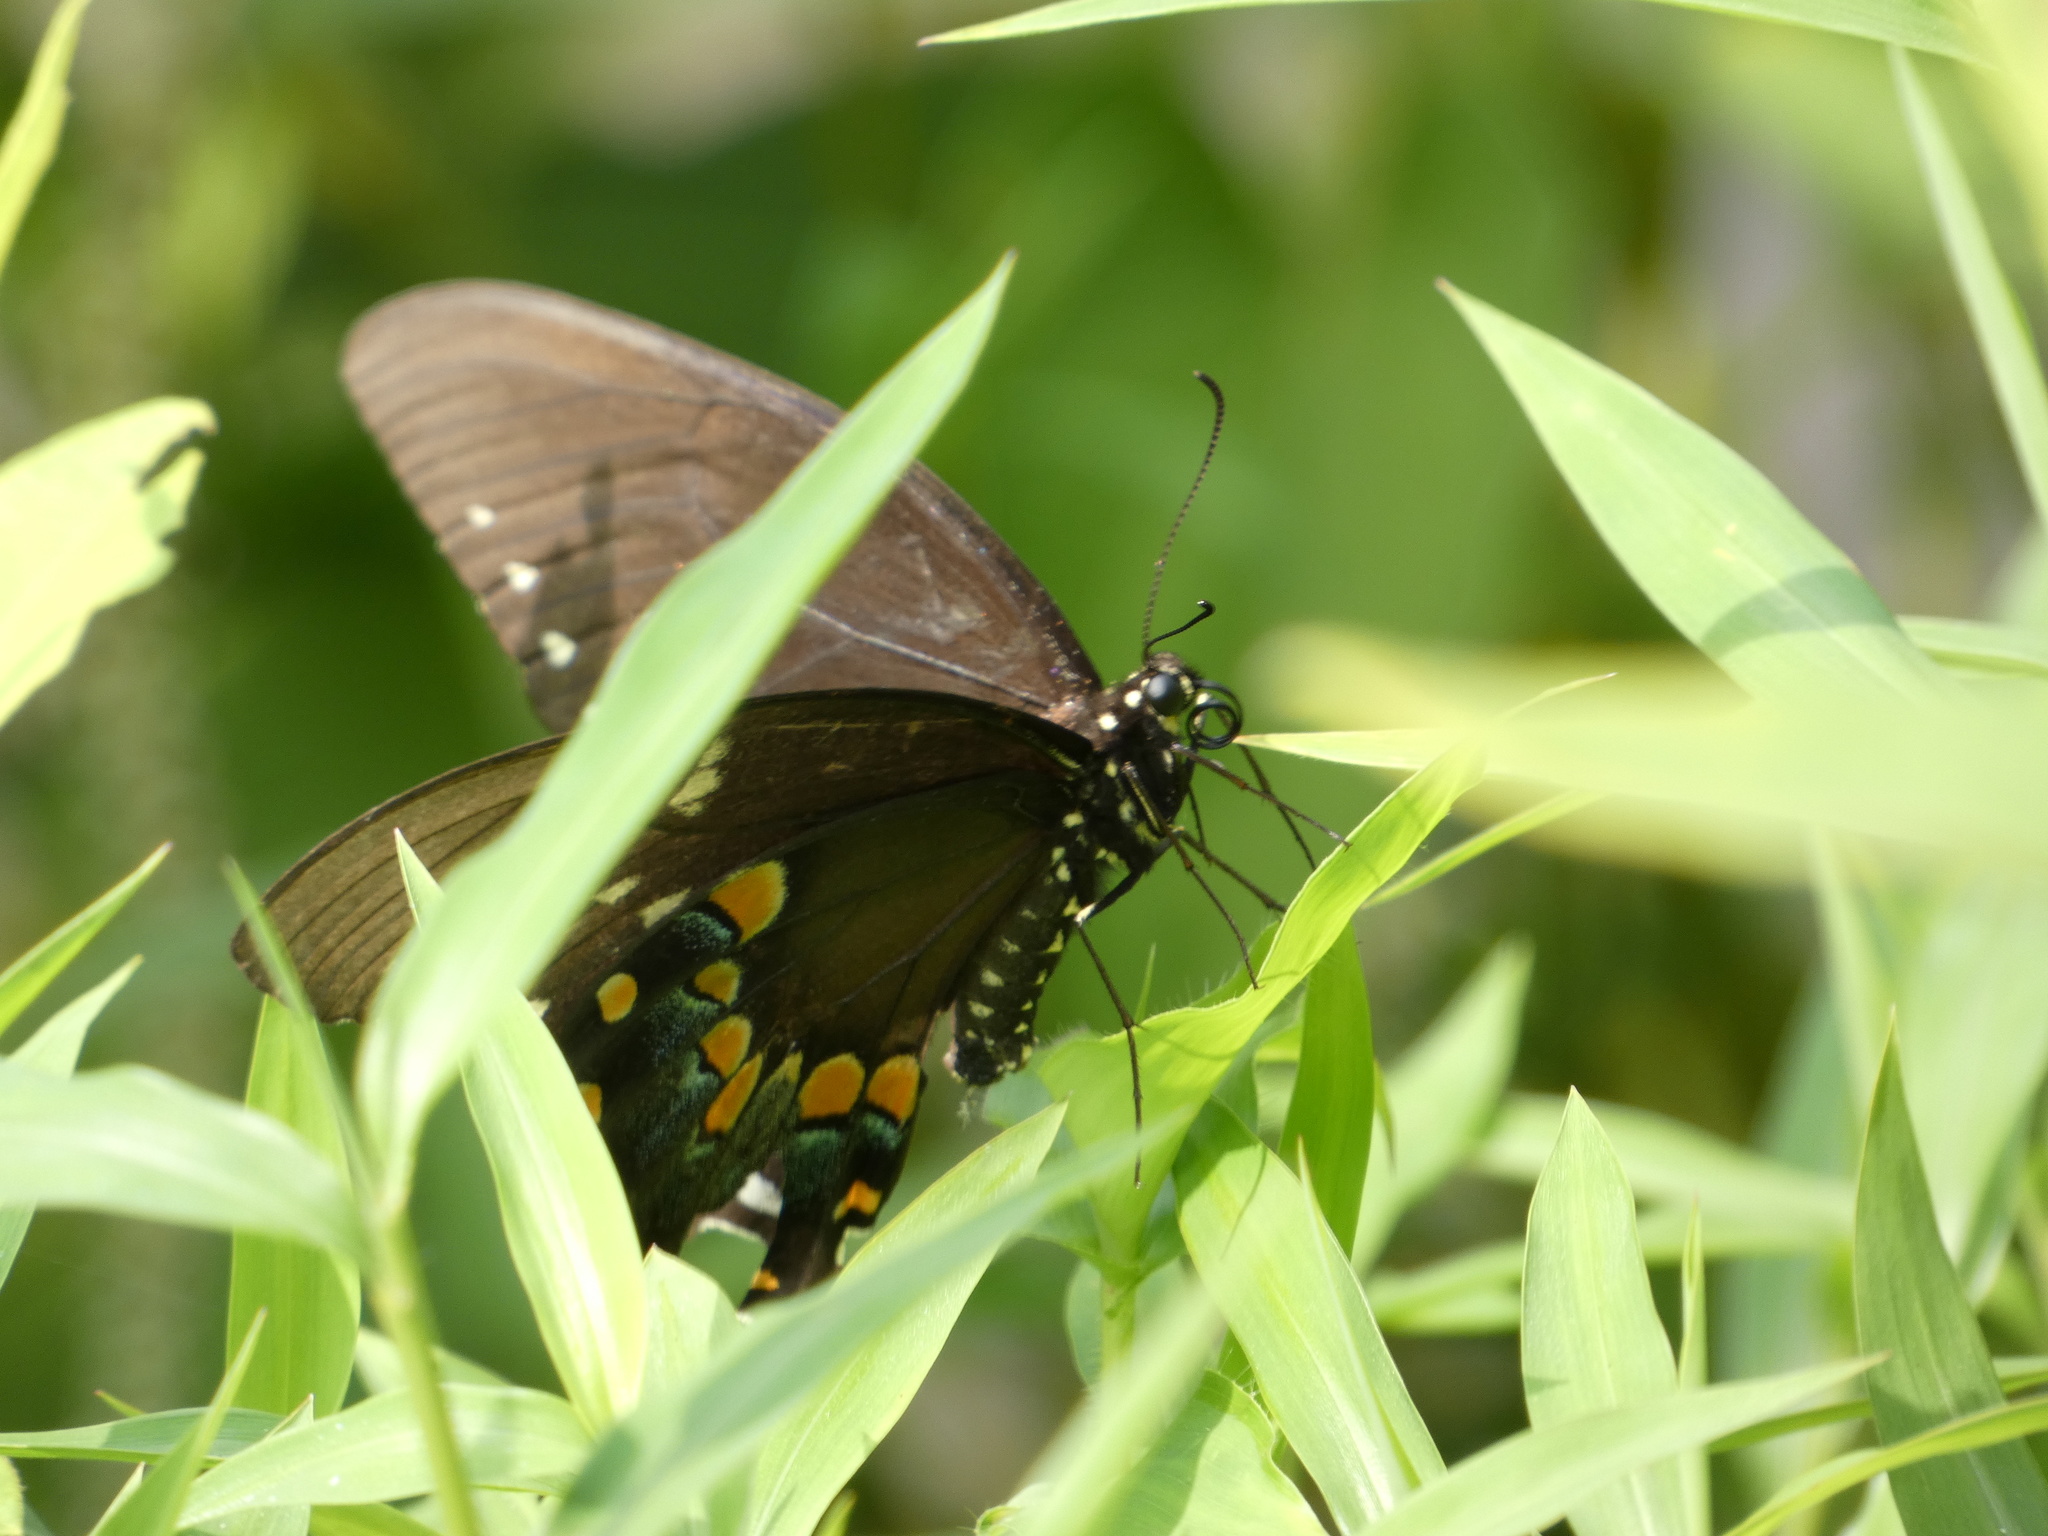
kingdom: Animalia
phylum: Arthropoda
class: Insecta
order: Lepidoptera
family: Papilionidae
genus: Papilio
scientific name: Papilio troilus
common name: Spicebush swallowtail
